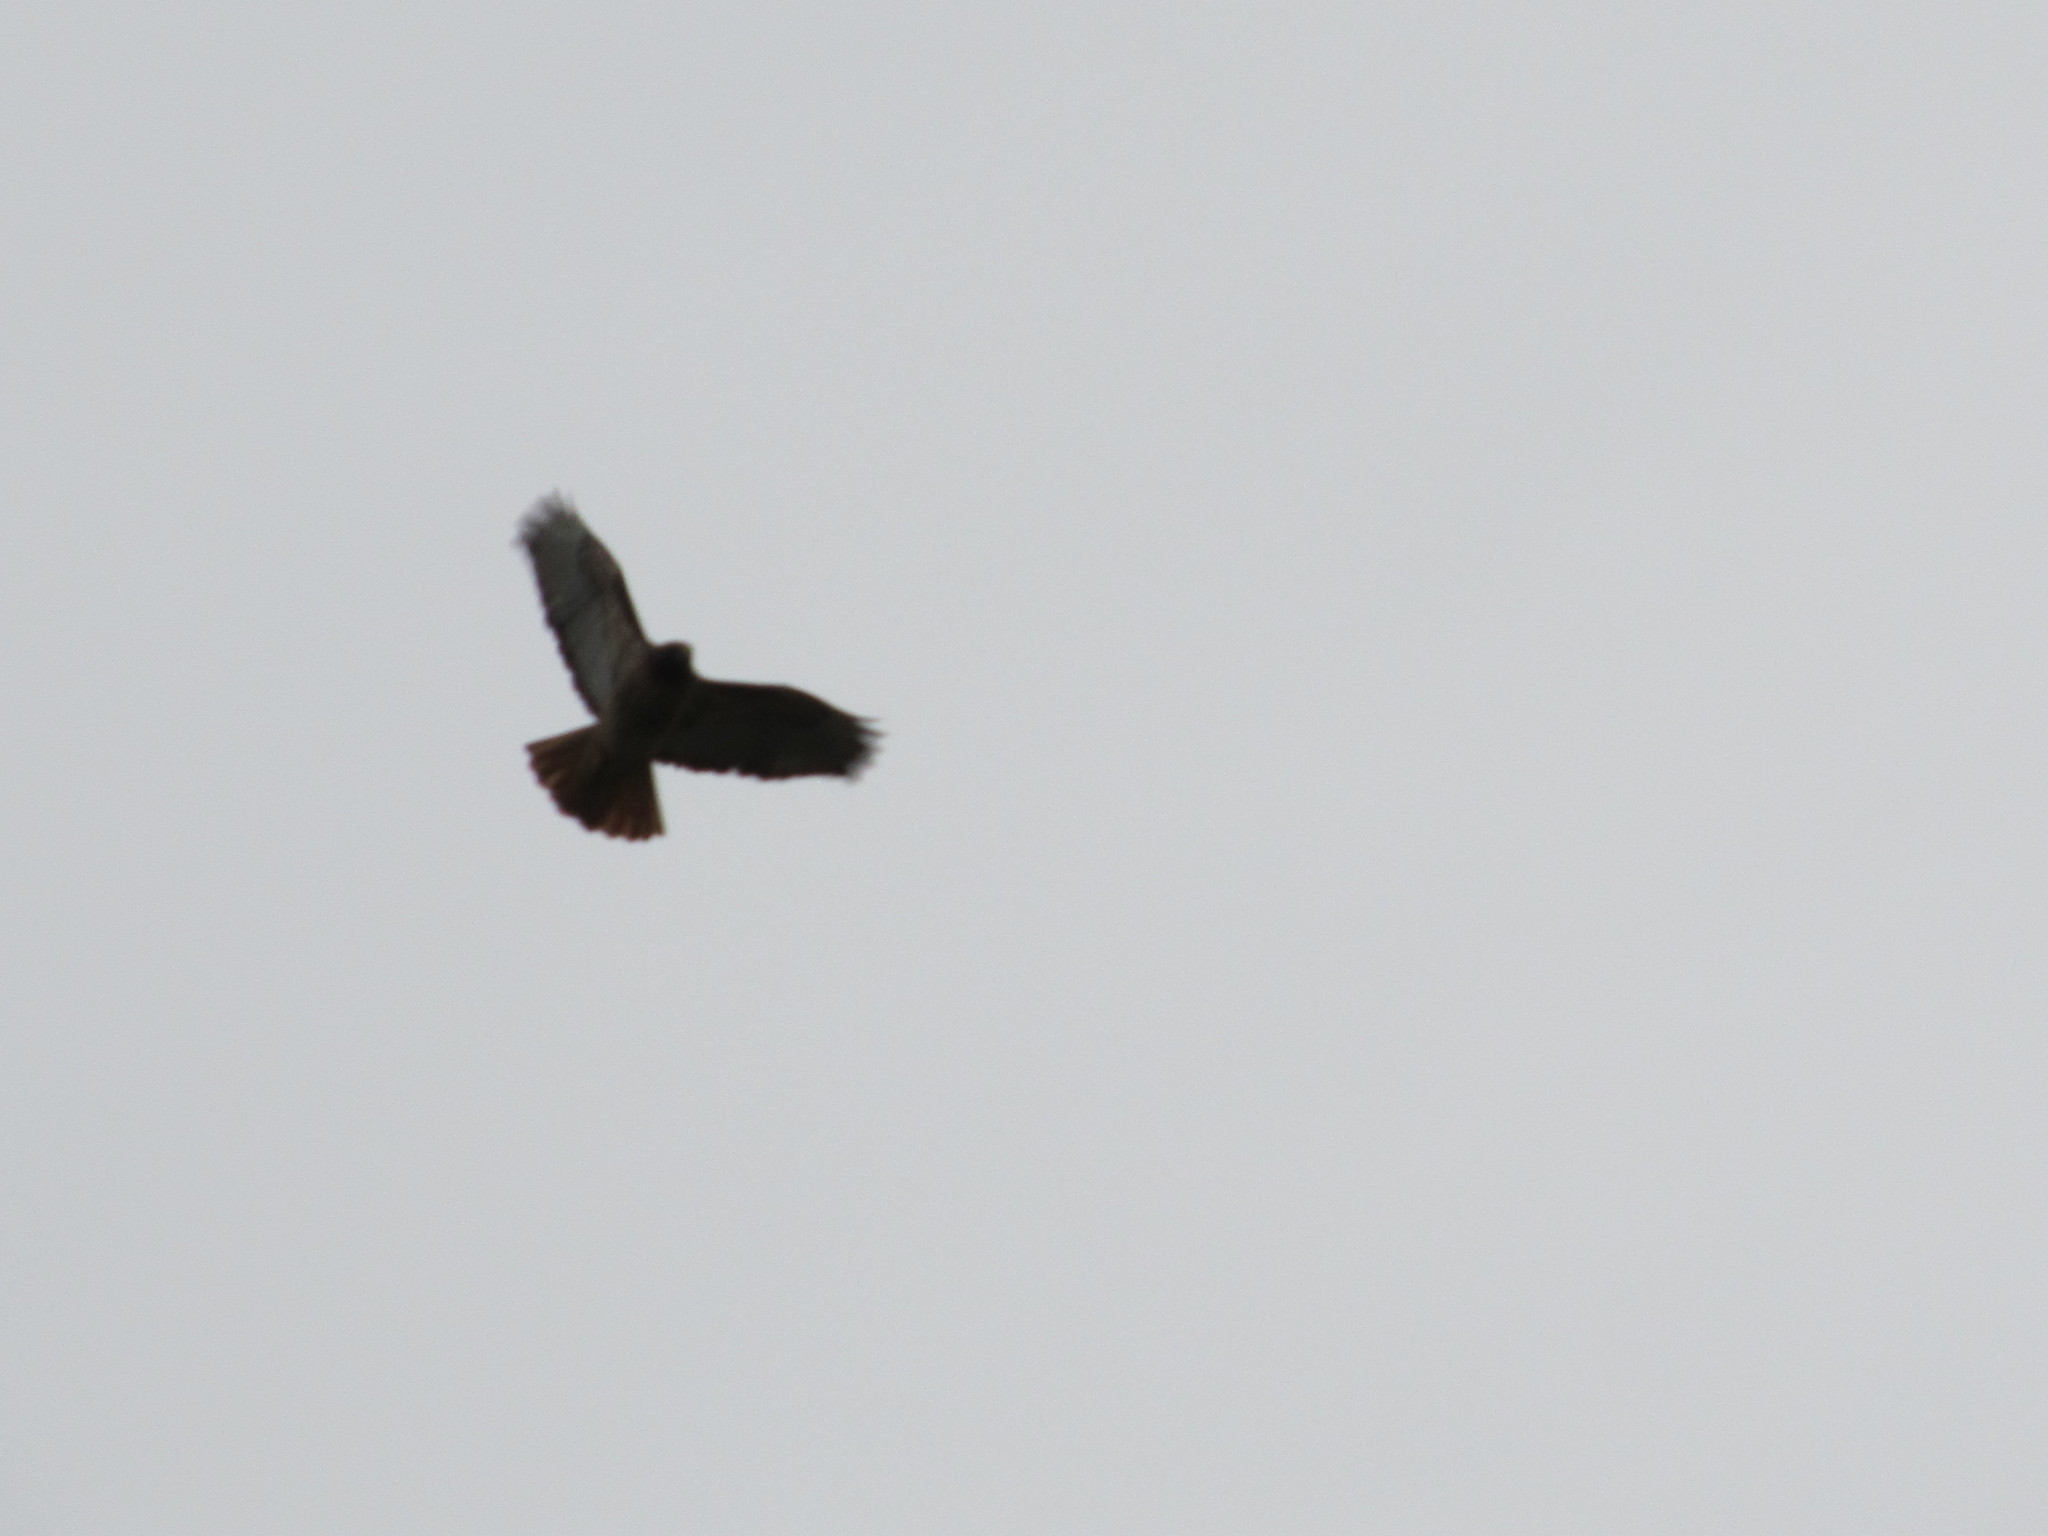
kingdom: Animalia
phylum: Chordata
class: Aves
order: Accipitriformes
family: Accipitridae
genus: Buteo
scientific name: Buteo jamaicensis
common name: Red-tailed hawk
